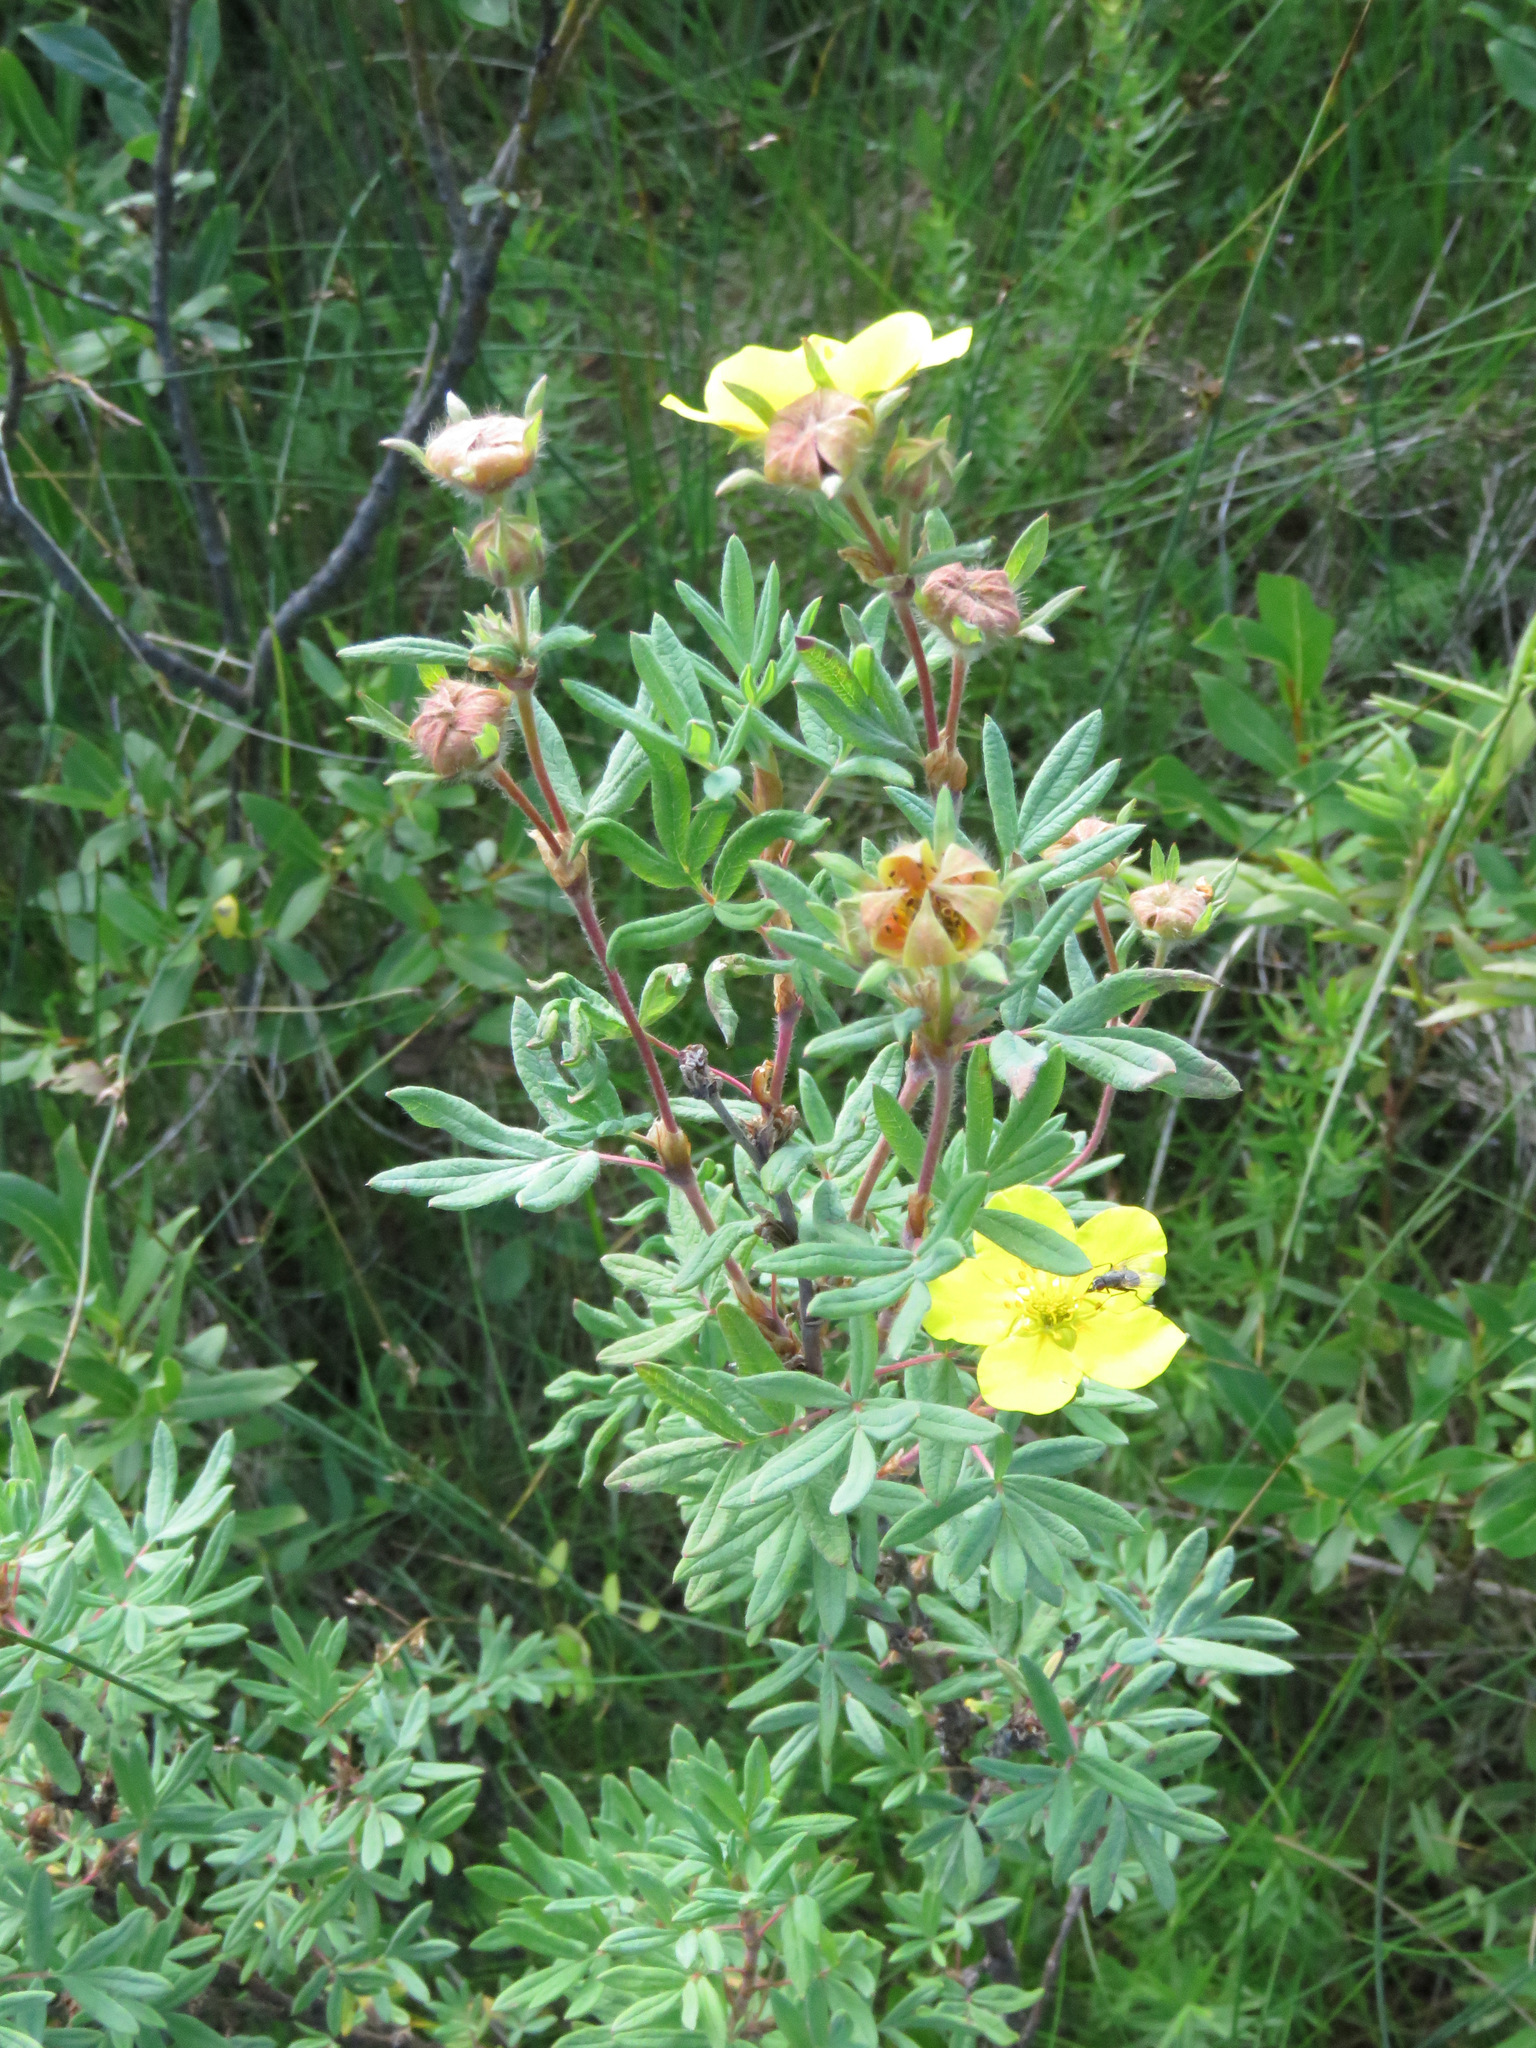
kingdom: Plantae
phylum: Tracheophyta
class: Magnoliopsida
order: Rosales
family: Rosaceae
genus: Dasiphora
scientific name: Dasiphora fruticosa
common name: Shrubby cinquefoil
